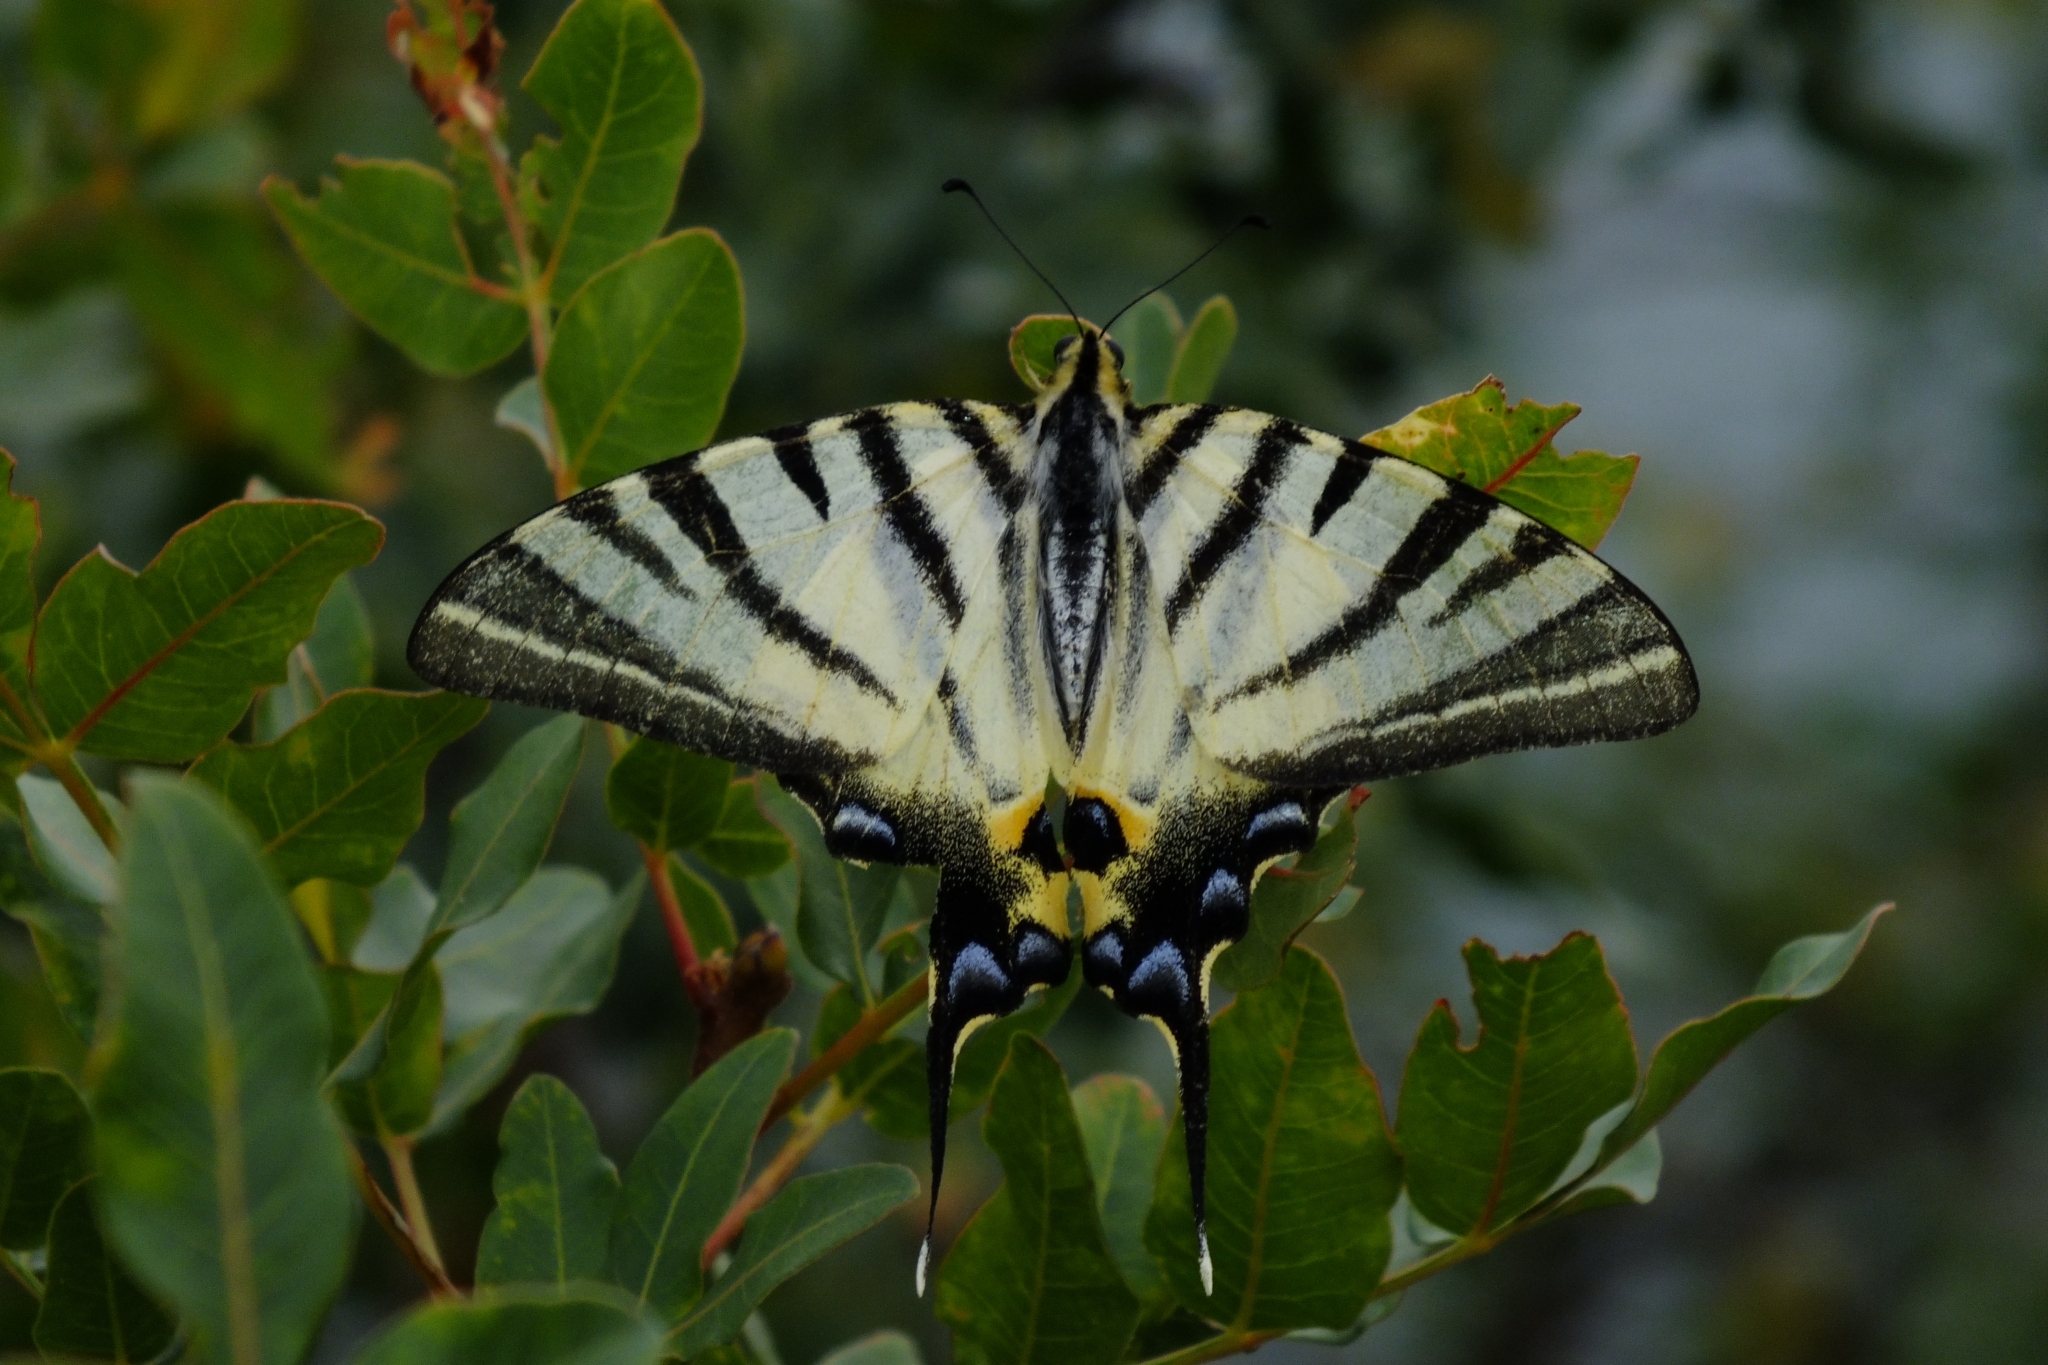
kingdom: Animalia
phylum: Arthropoda
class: Insecta
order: Lepidoptera
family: Papilionidae
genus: Iphiclides
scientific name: Iphiclides podalirius
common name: Scarce swallowtail
